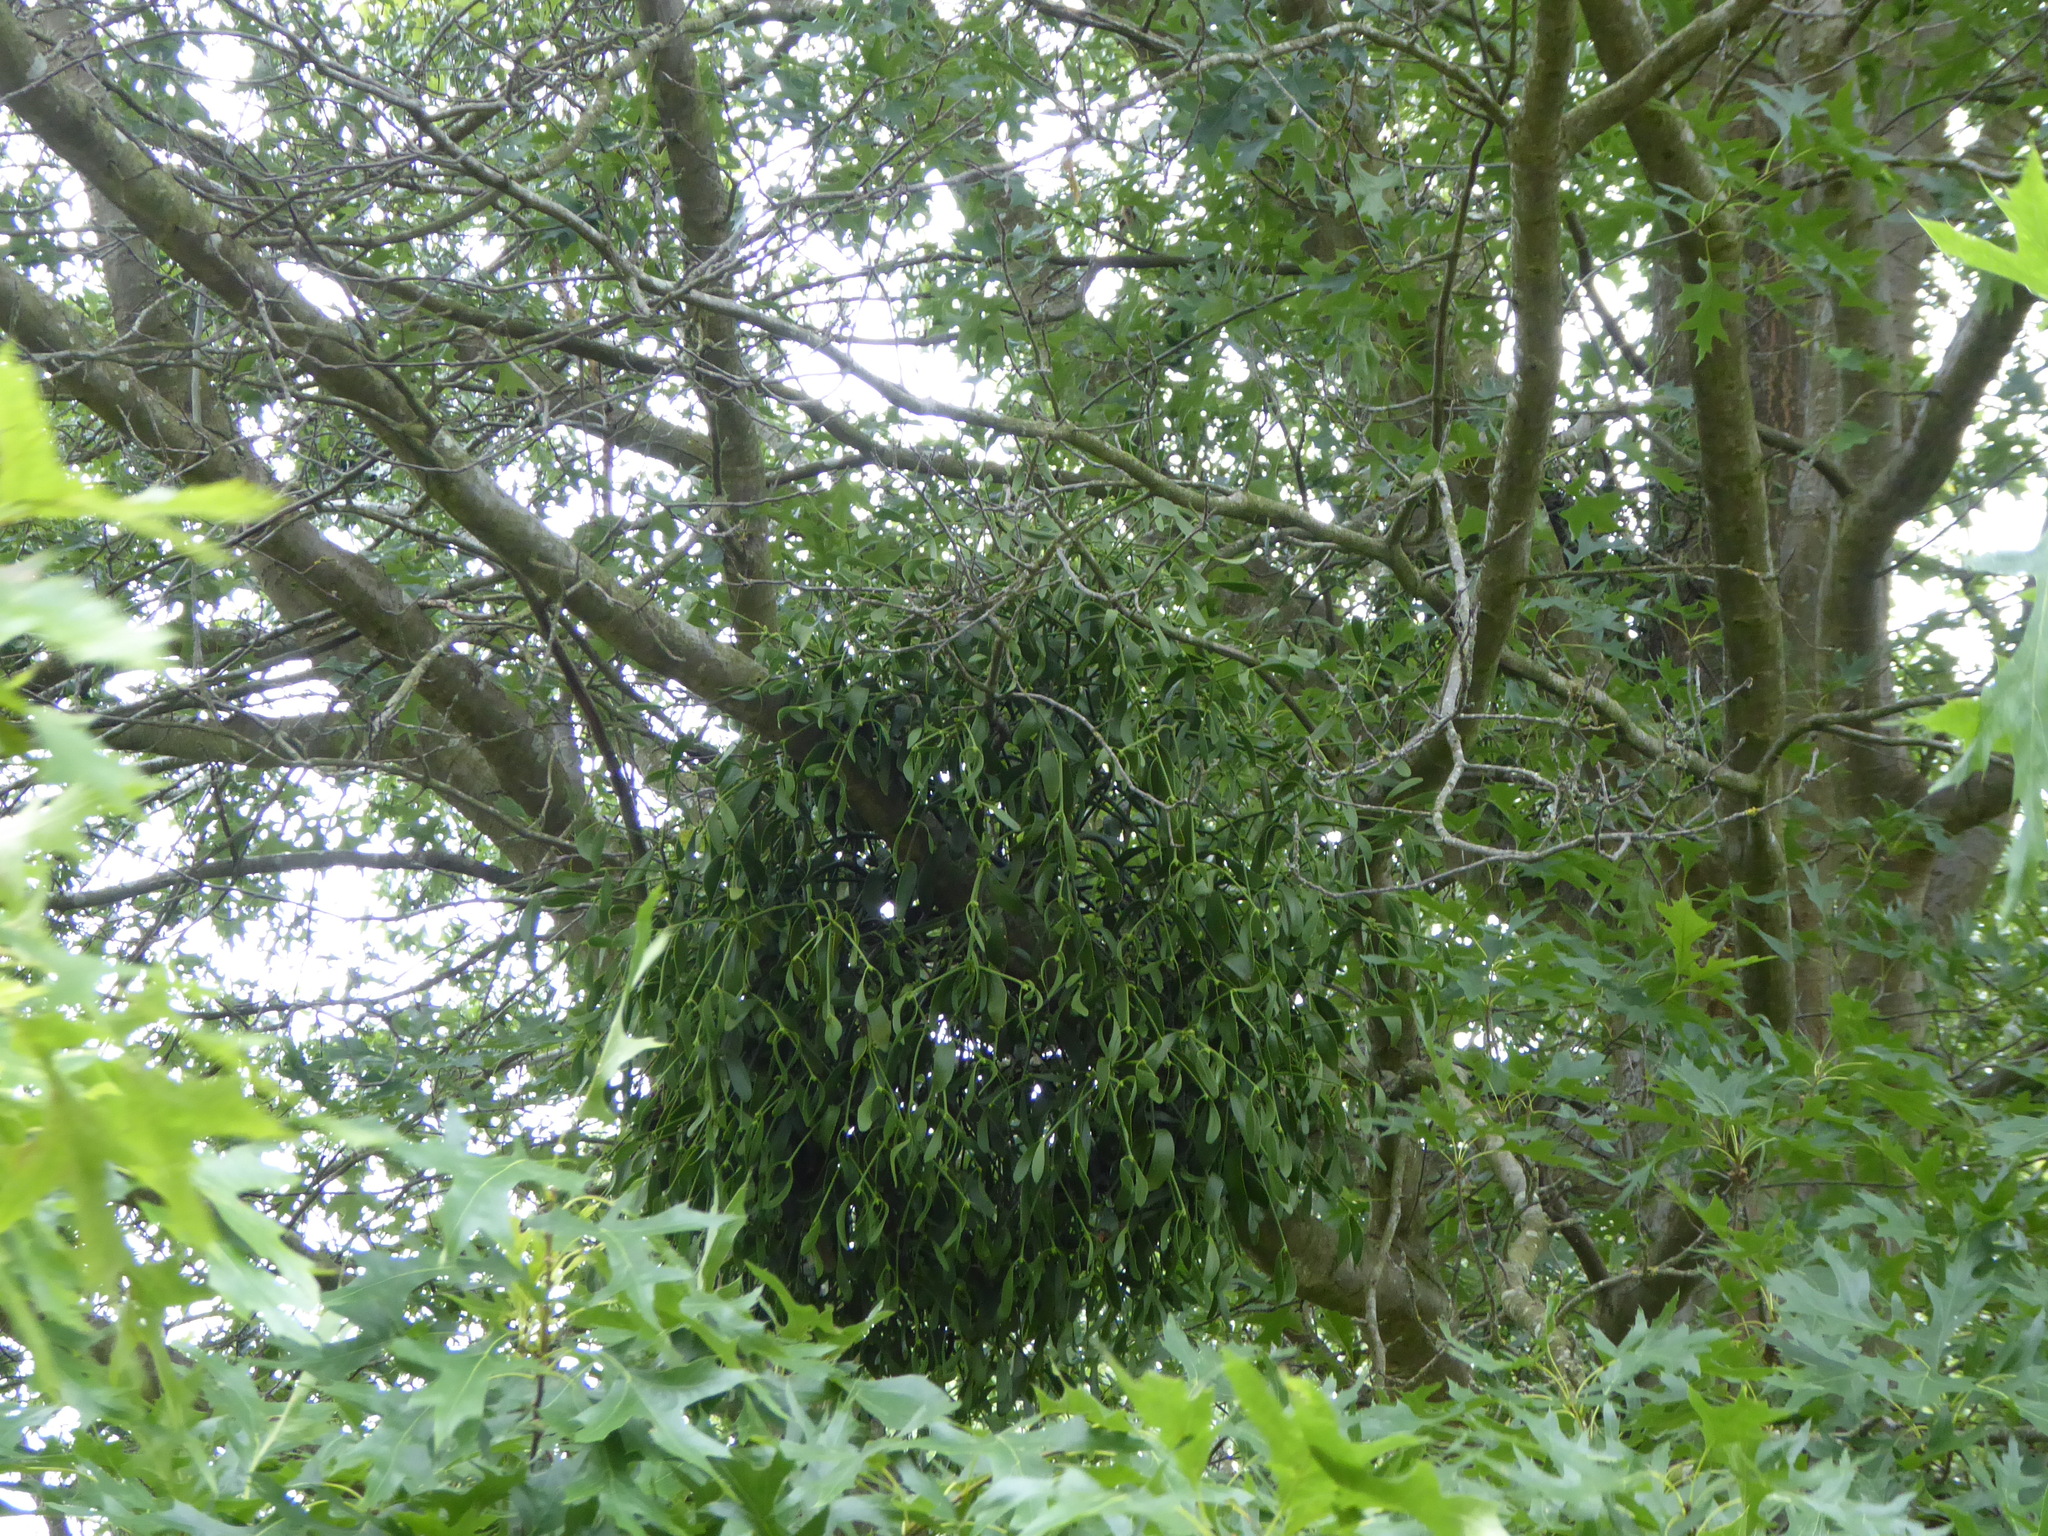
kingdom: Plantae
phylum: Tracheophyta
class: Magnoliopsida
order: Santalales
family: Viscaceae
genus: Viscum
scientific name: Viscum album
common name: Mistletoe
